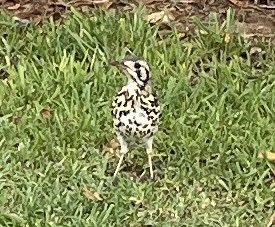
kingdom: Animalia
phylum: Chordata
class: Aves
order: Passeriformes
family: Turdidae
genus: Psophocichla
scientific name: Psophocichla litsitsirupa
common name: Groundscraper thrush
